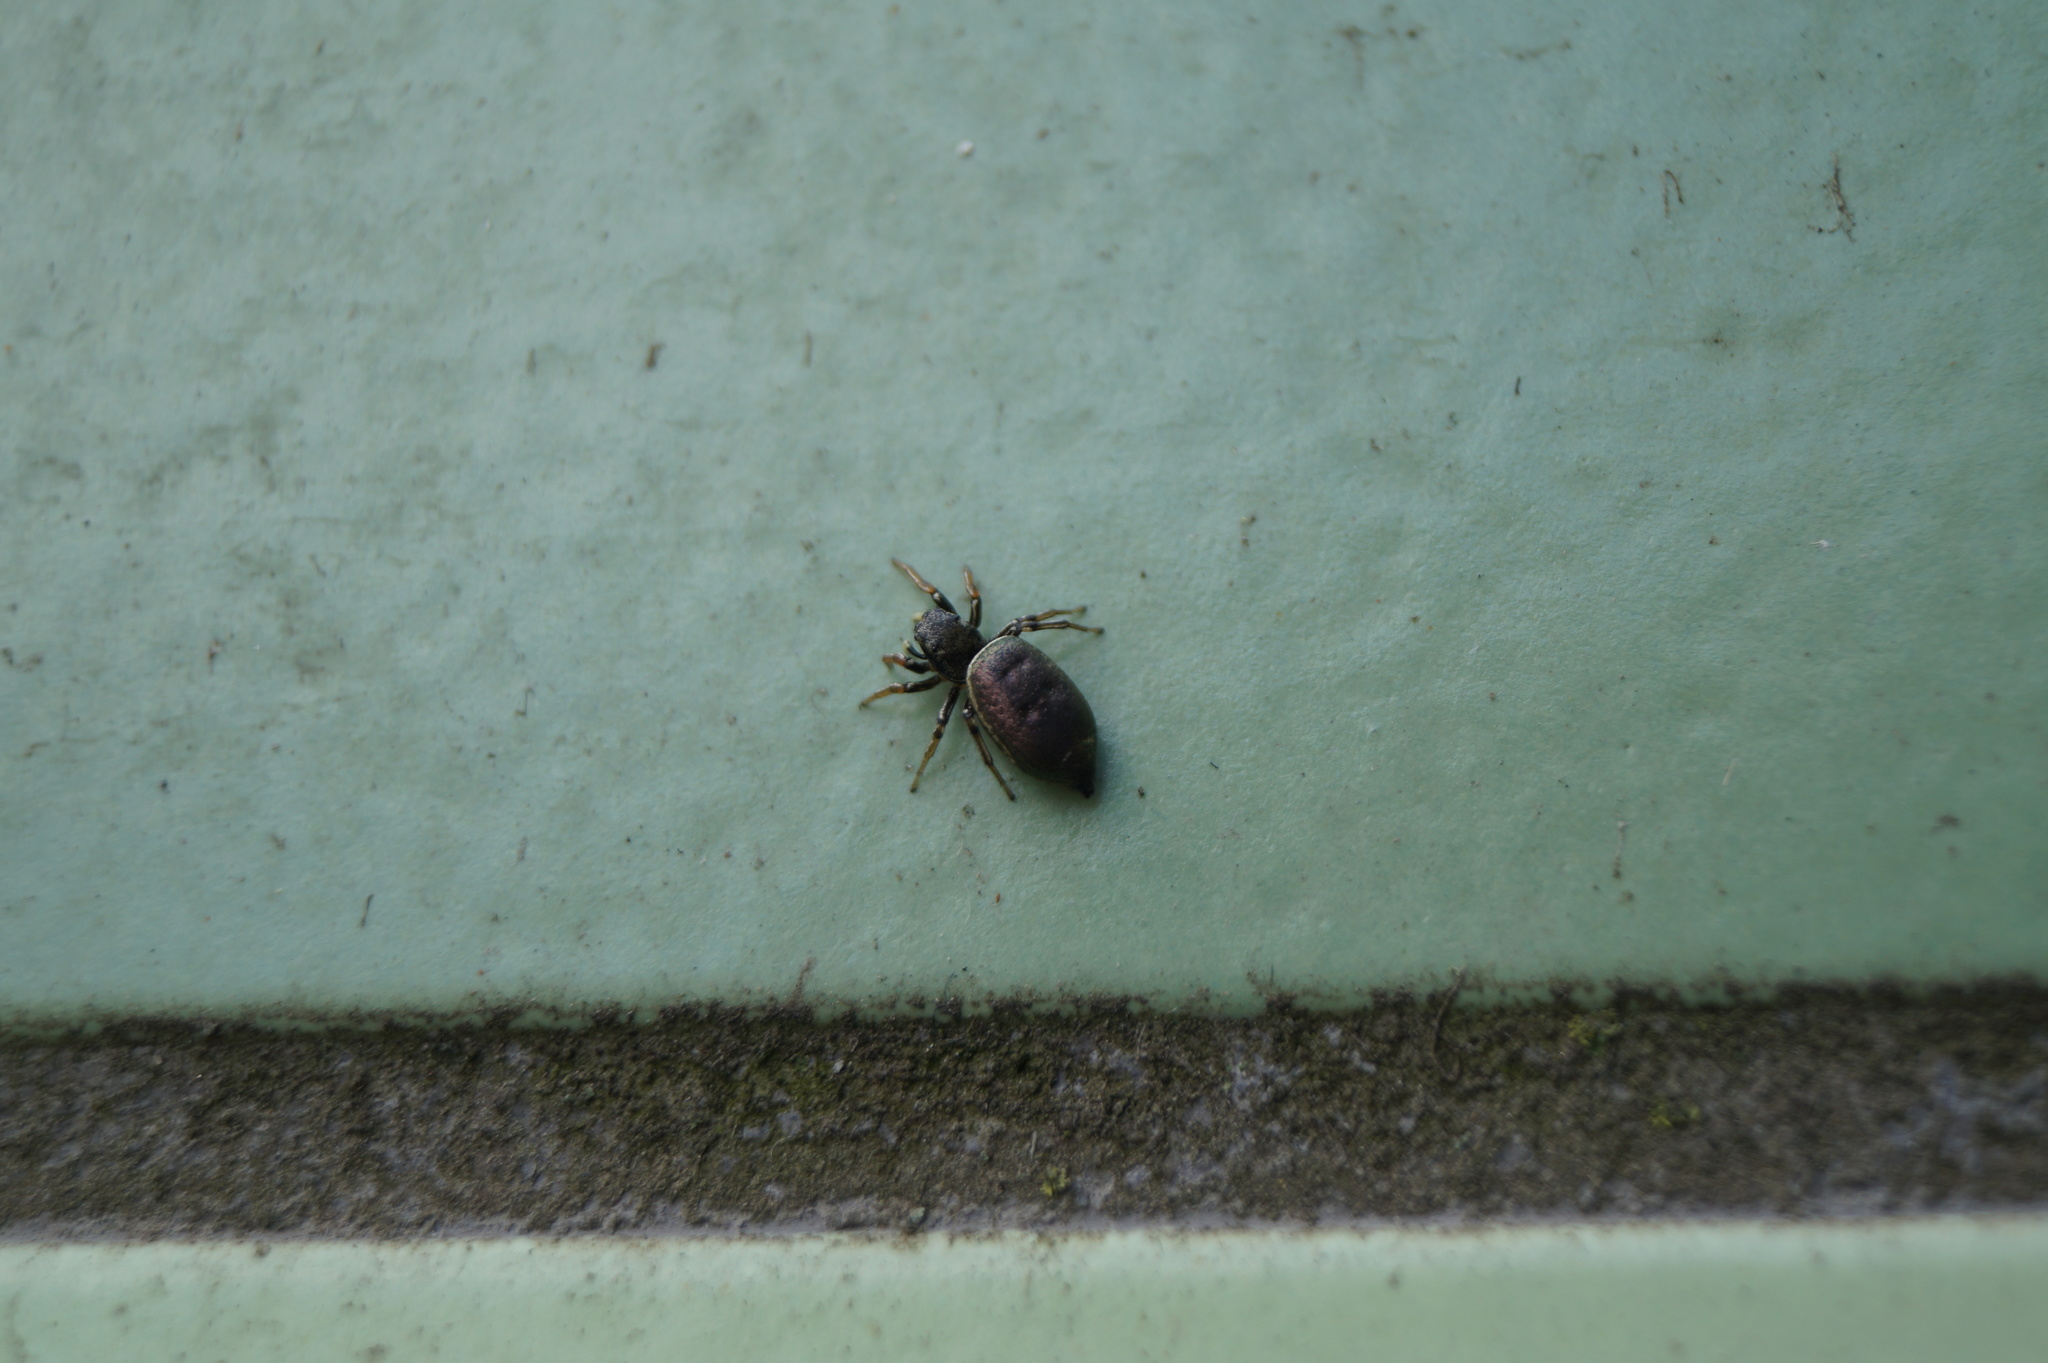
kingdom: Animalia
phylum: Arthropoda
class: Arachnida
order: Araneae
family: Salticidae
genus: Heliophanus
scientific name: Heliophanus auratus
